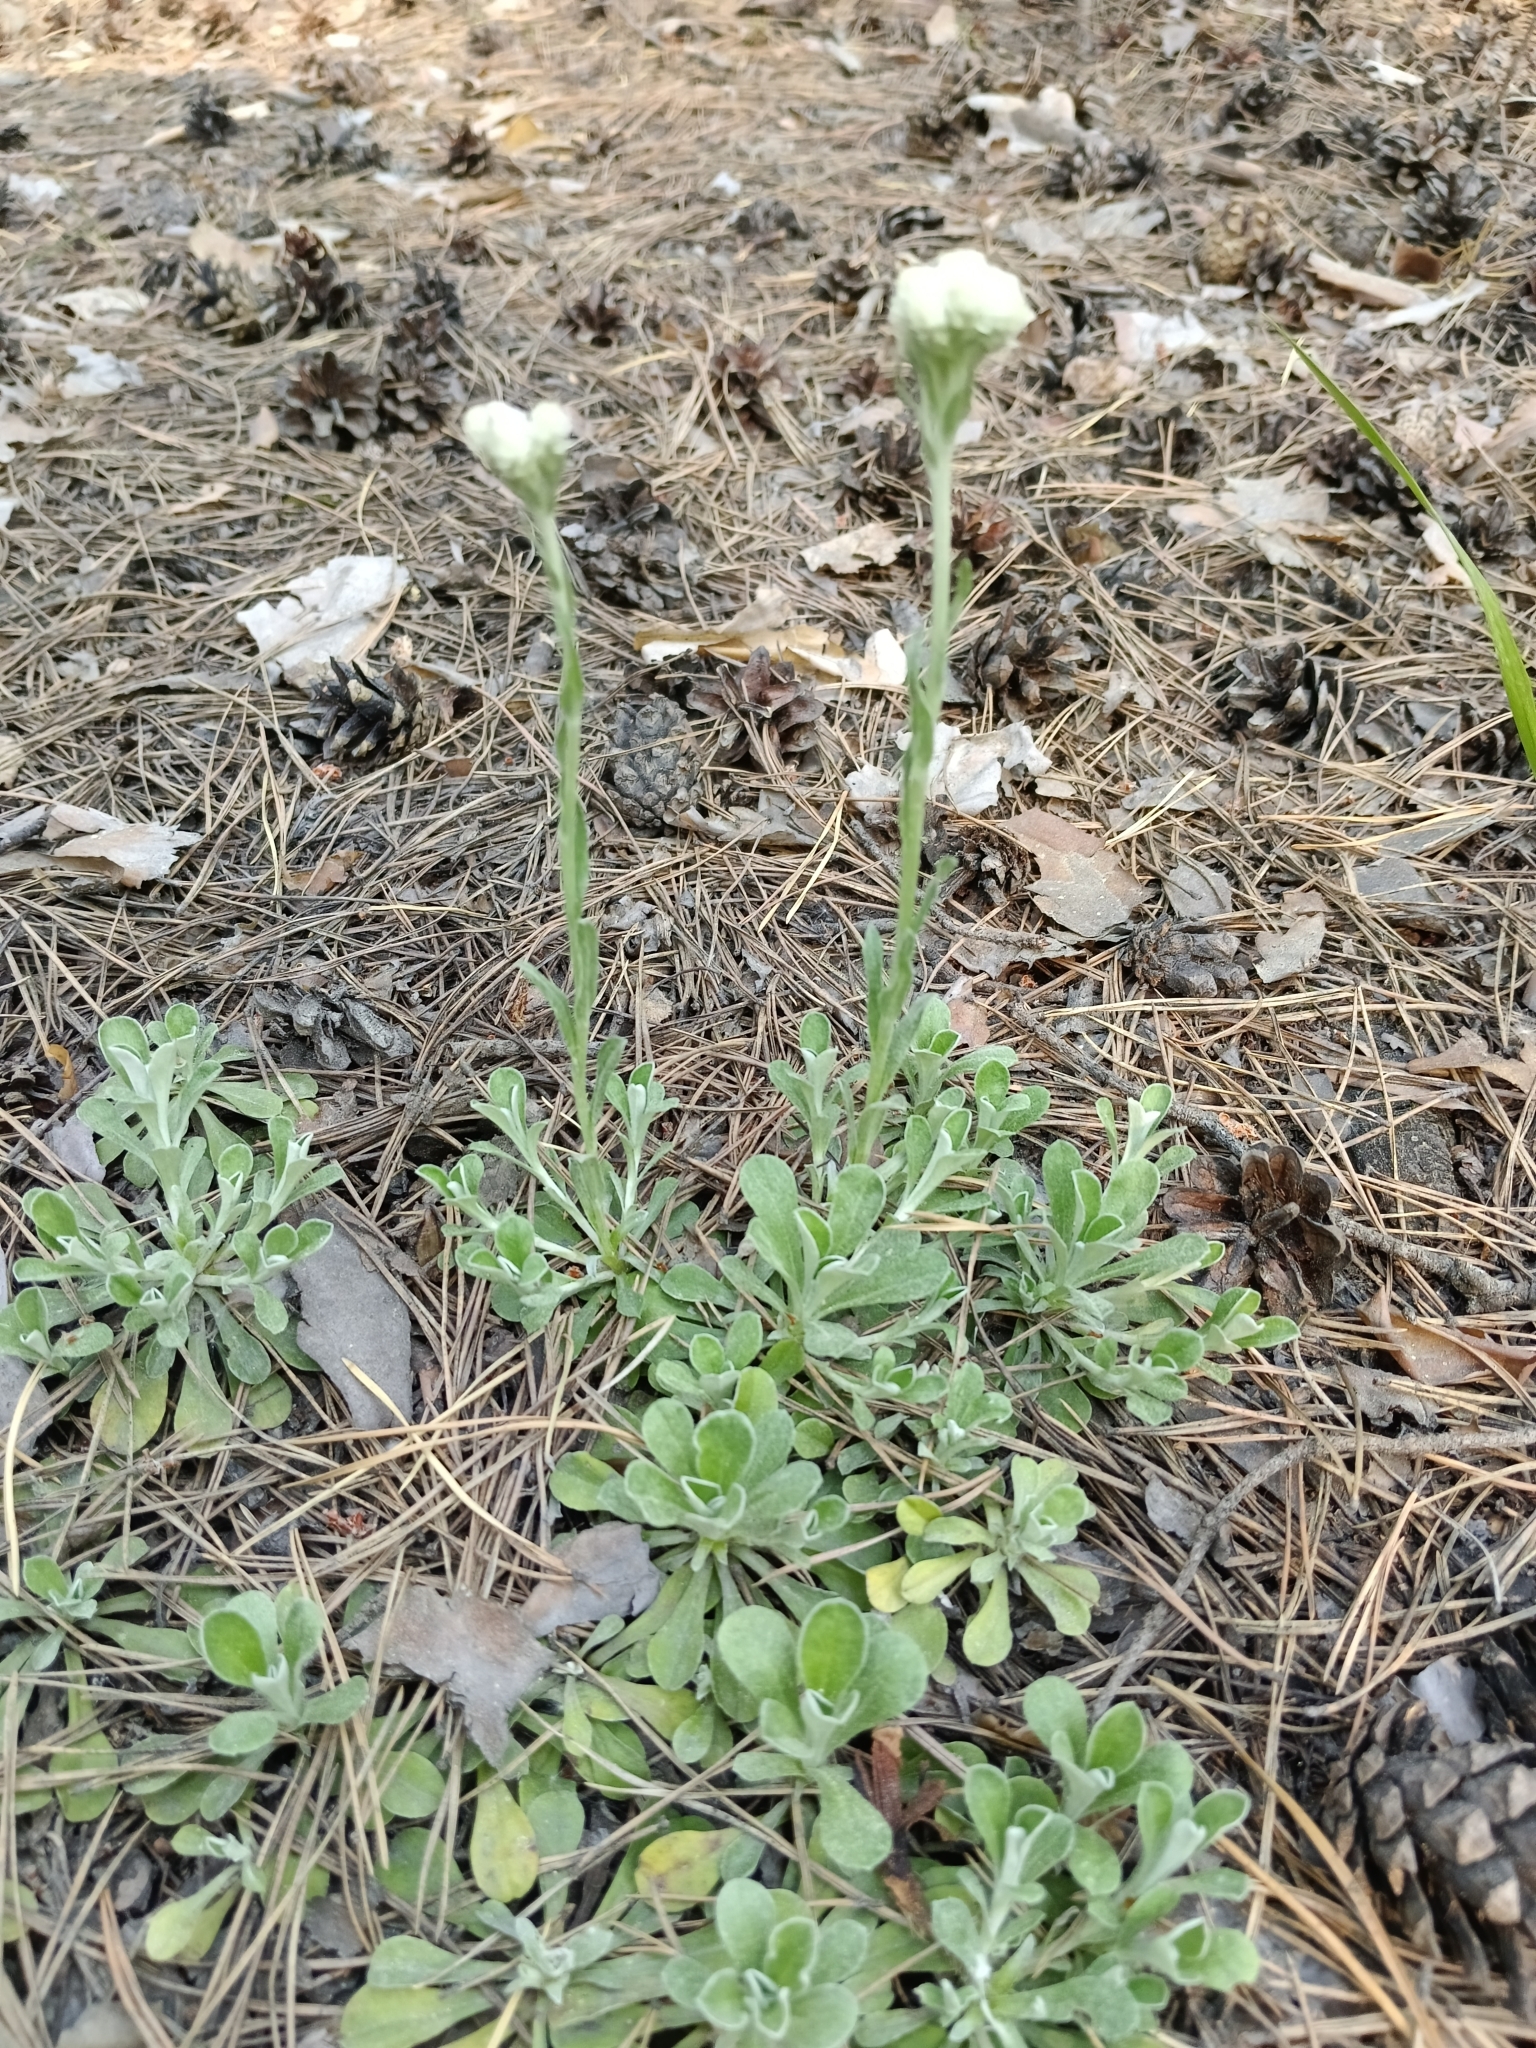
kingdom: Plantae
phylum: Tracheophyta
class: Magnoliopsida
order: Asterales
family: Asteraceae
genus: Antennaria
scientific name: Antennaria dioica
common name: Mountain everlasting
